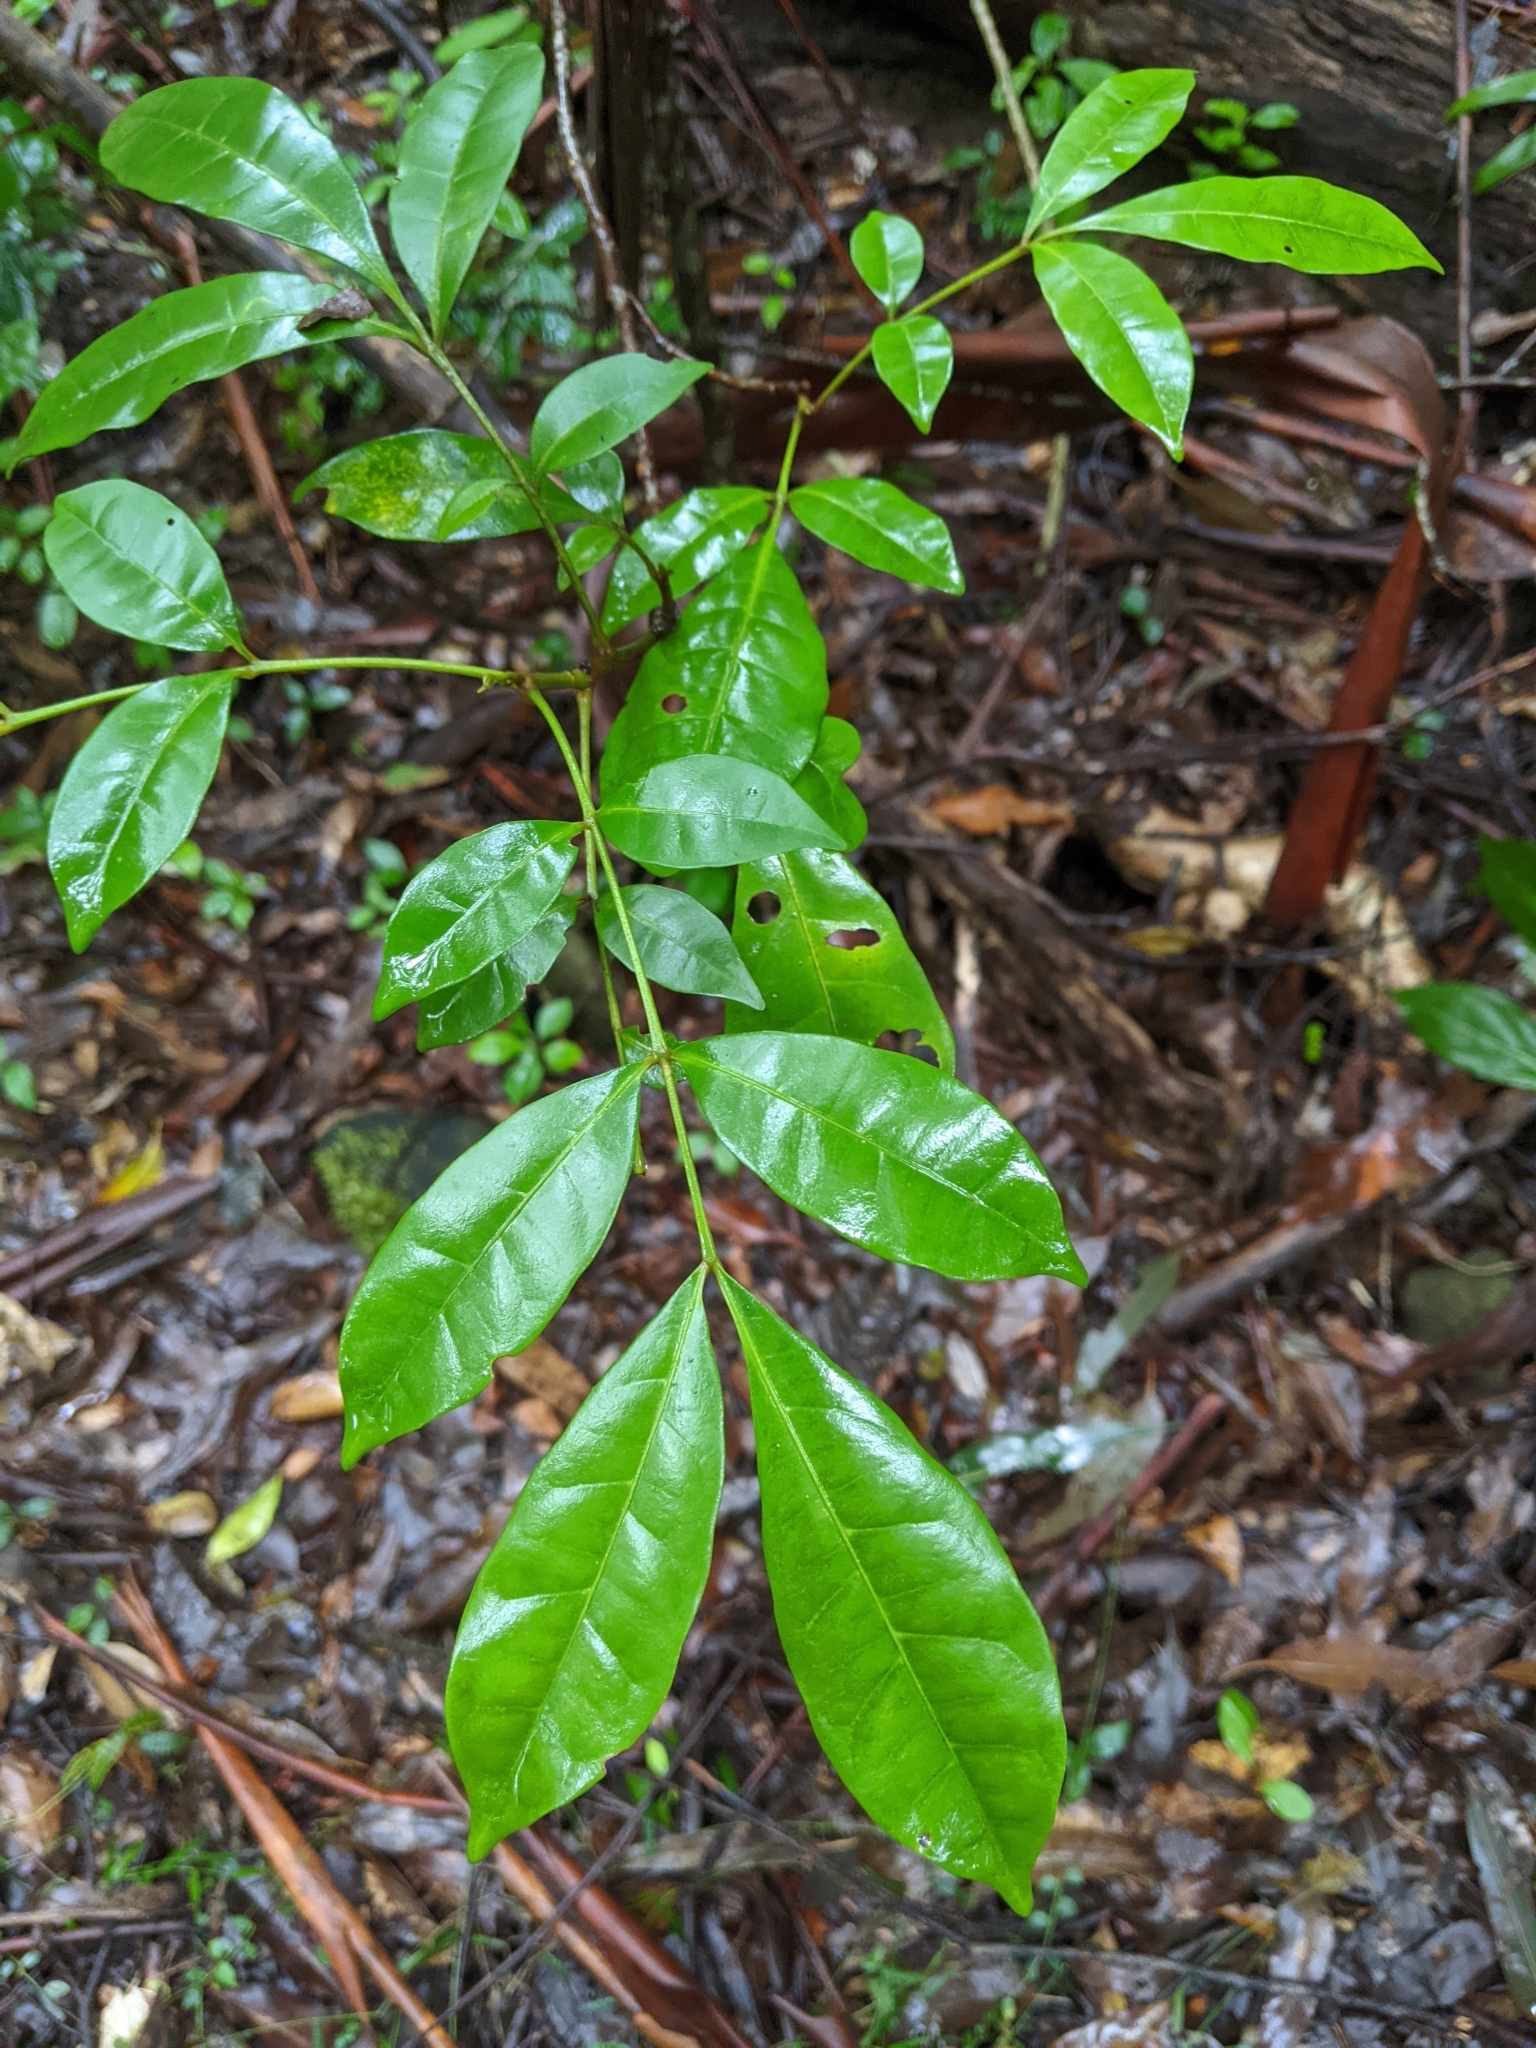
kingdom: Plantae
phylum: Tracheophyta
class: Magnoliopsida
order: Sapindales
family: Meliaceae
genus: Synoum
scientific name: Synoum glandulosum
